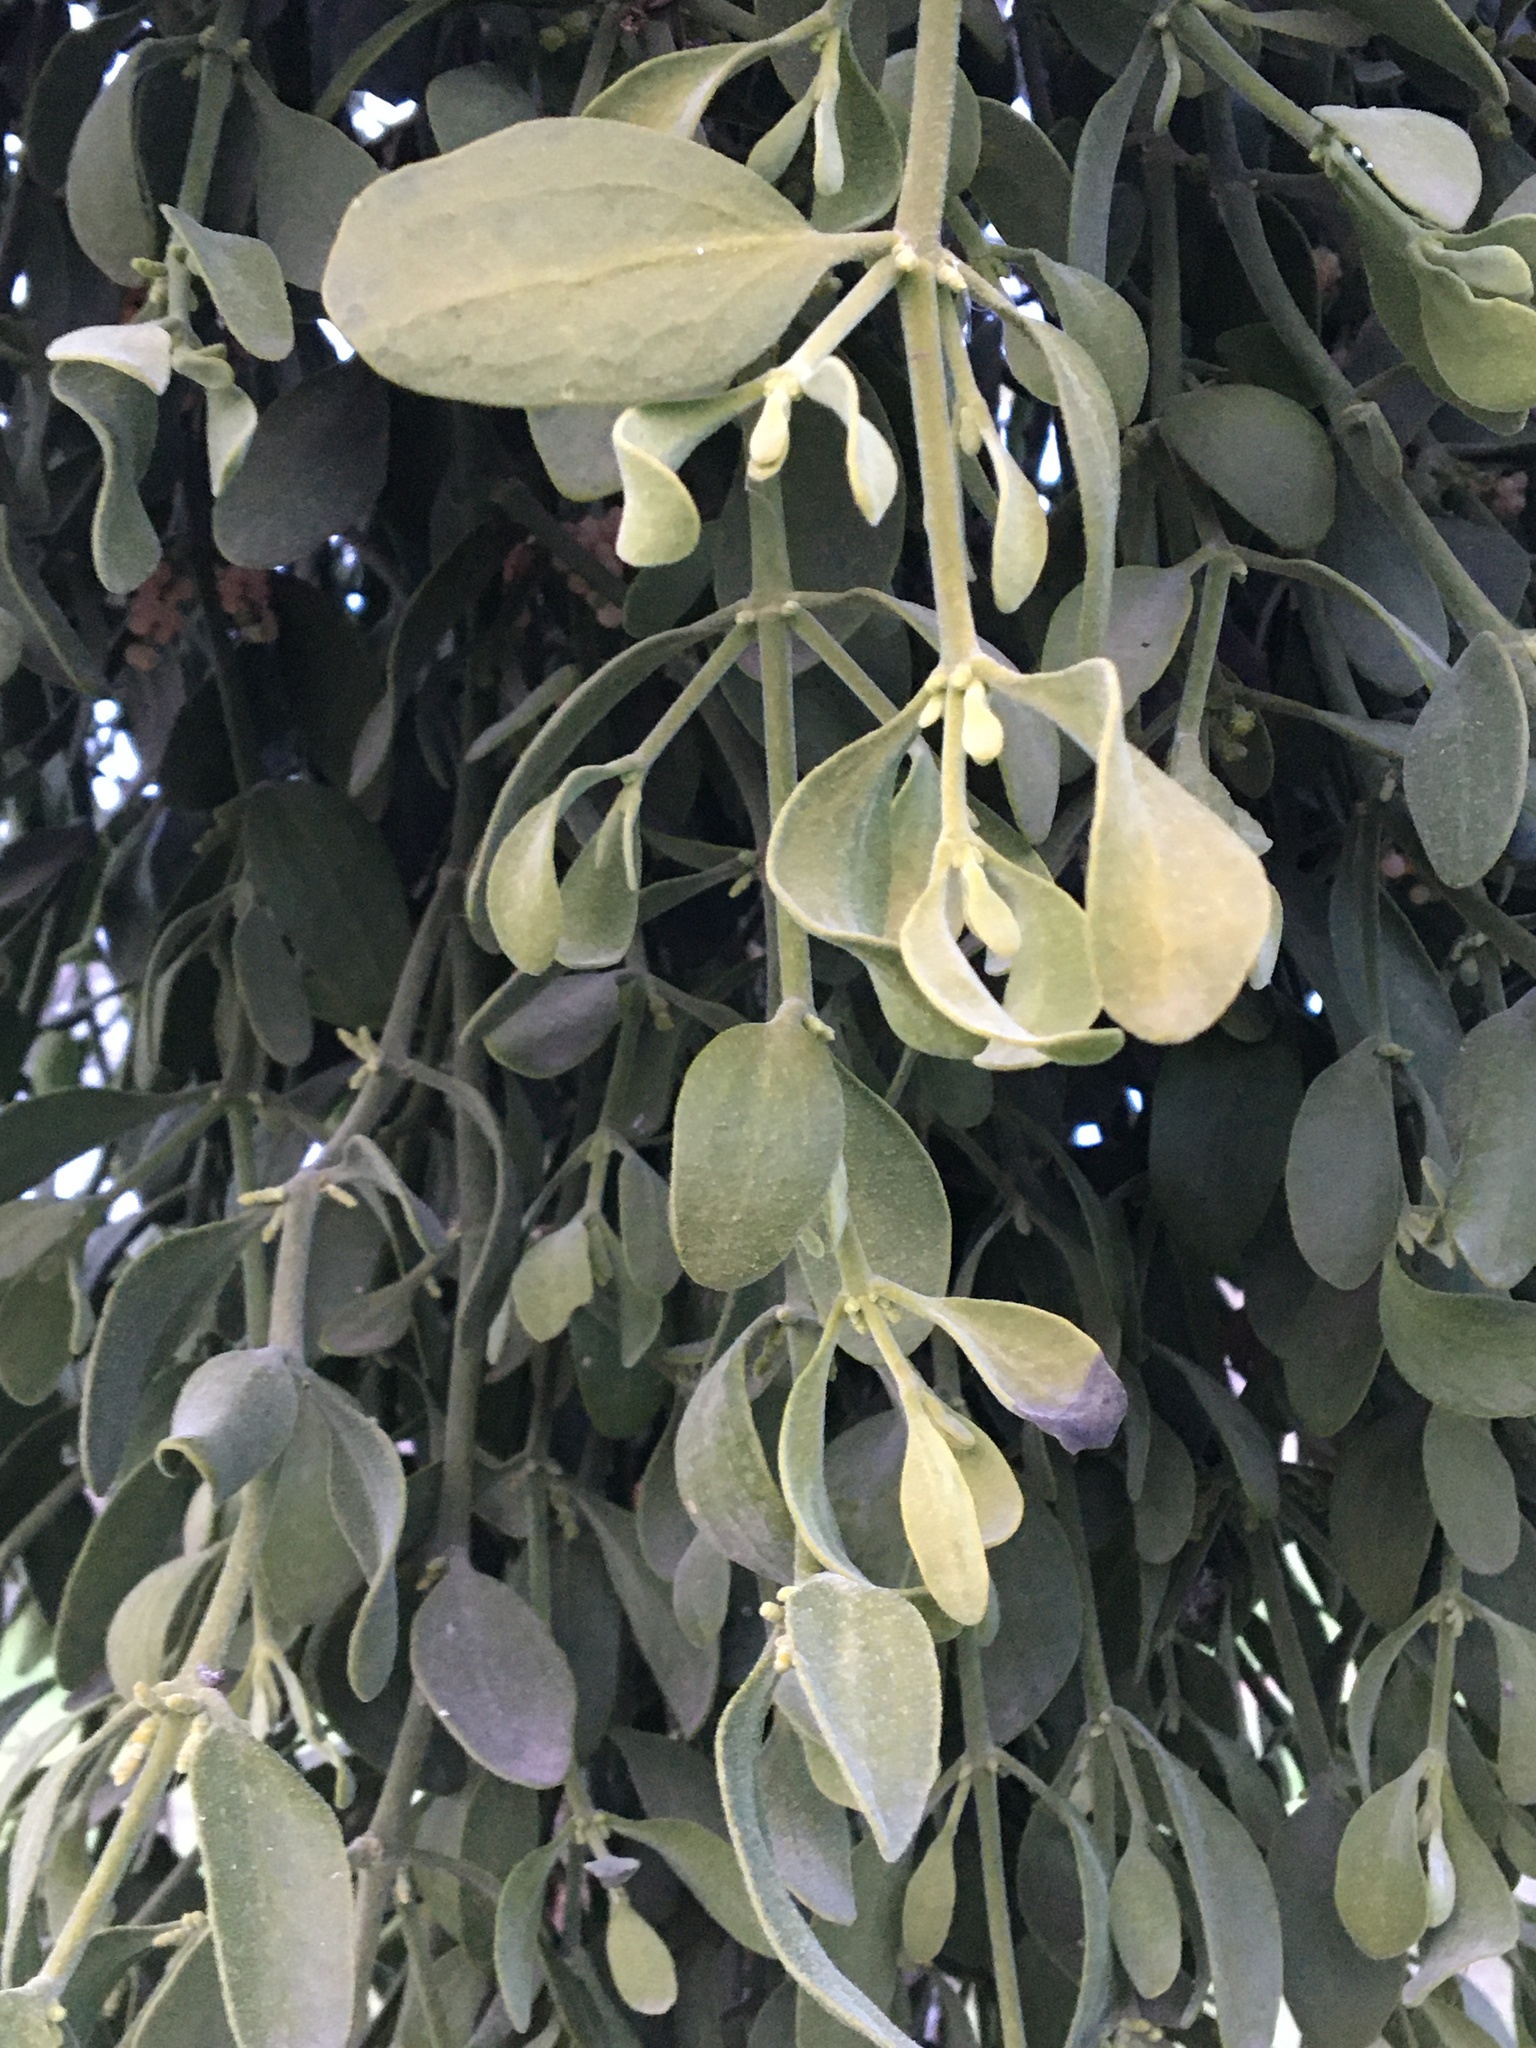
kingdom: Plantae
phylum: Tracheophyta
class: Magnoliopsida
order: Santalales
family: Viscaceae
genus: Phoradendron
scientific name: Phoradendron leucarpum
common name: Pacific mistletoe
